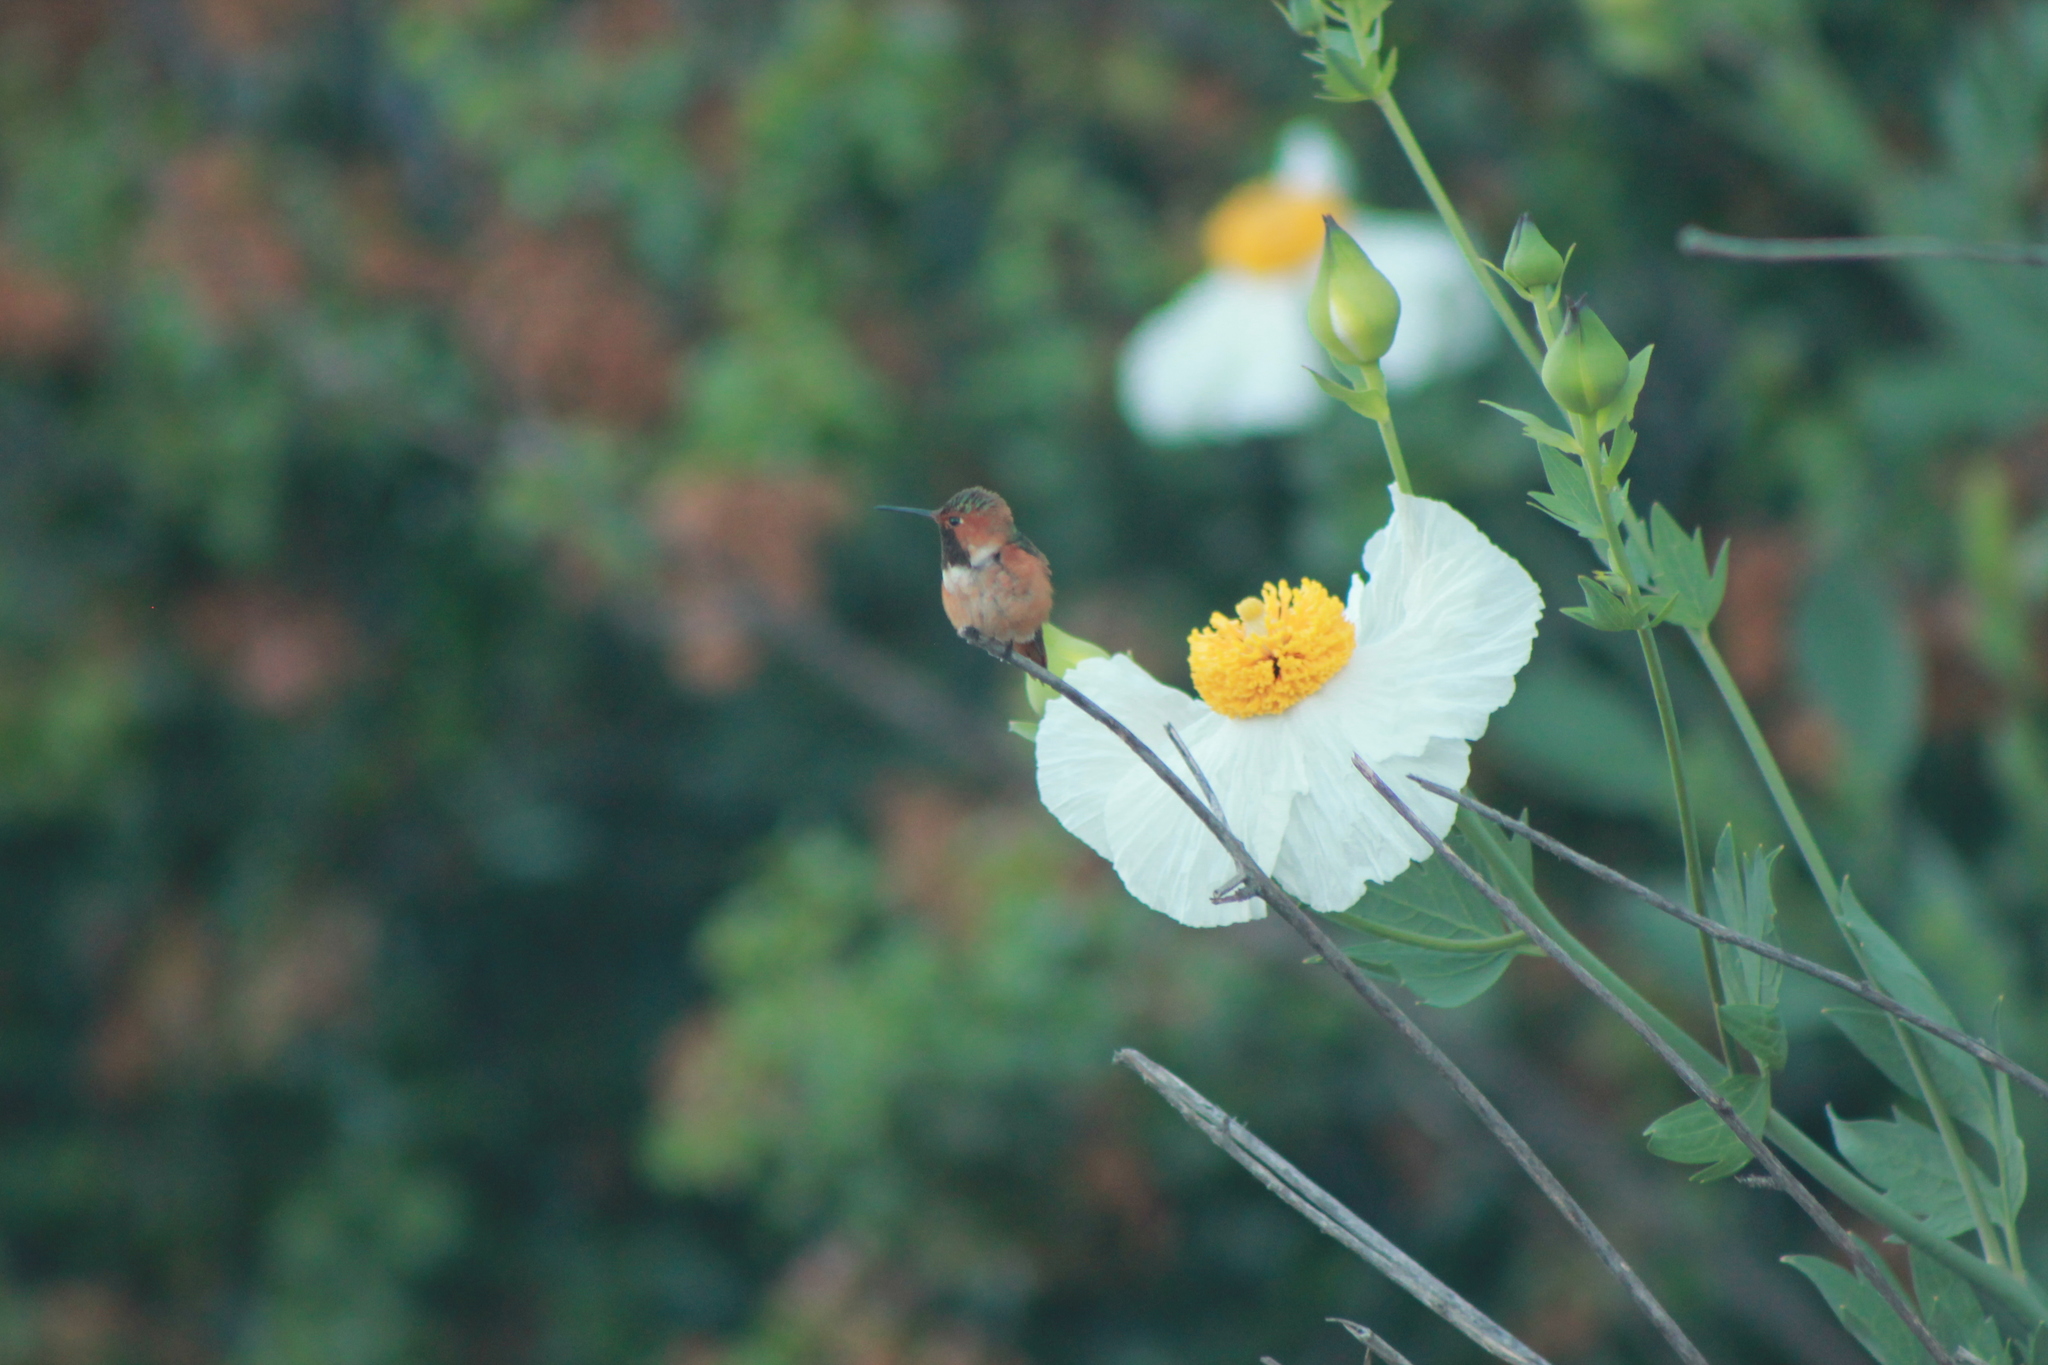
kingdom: Animalia
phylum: Chordata
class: Aves
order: Apodiformes
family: Trochilidae
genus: Selasphorus
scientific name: Selasphorus sasin
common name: Allen's hummingbird
